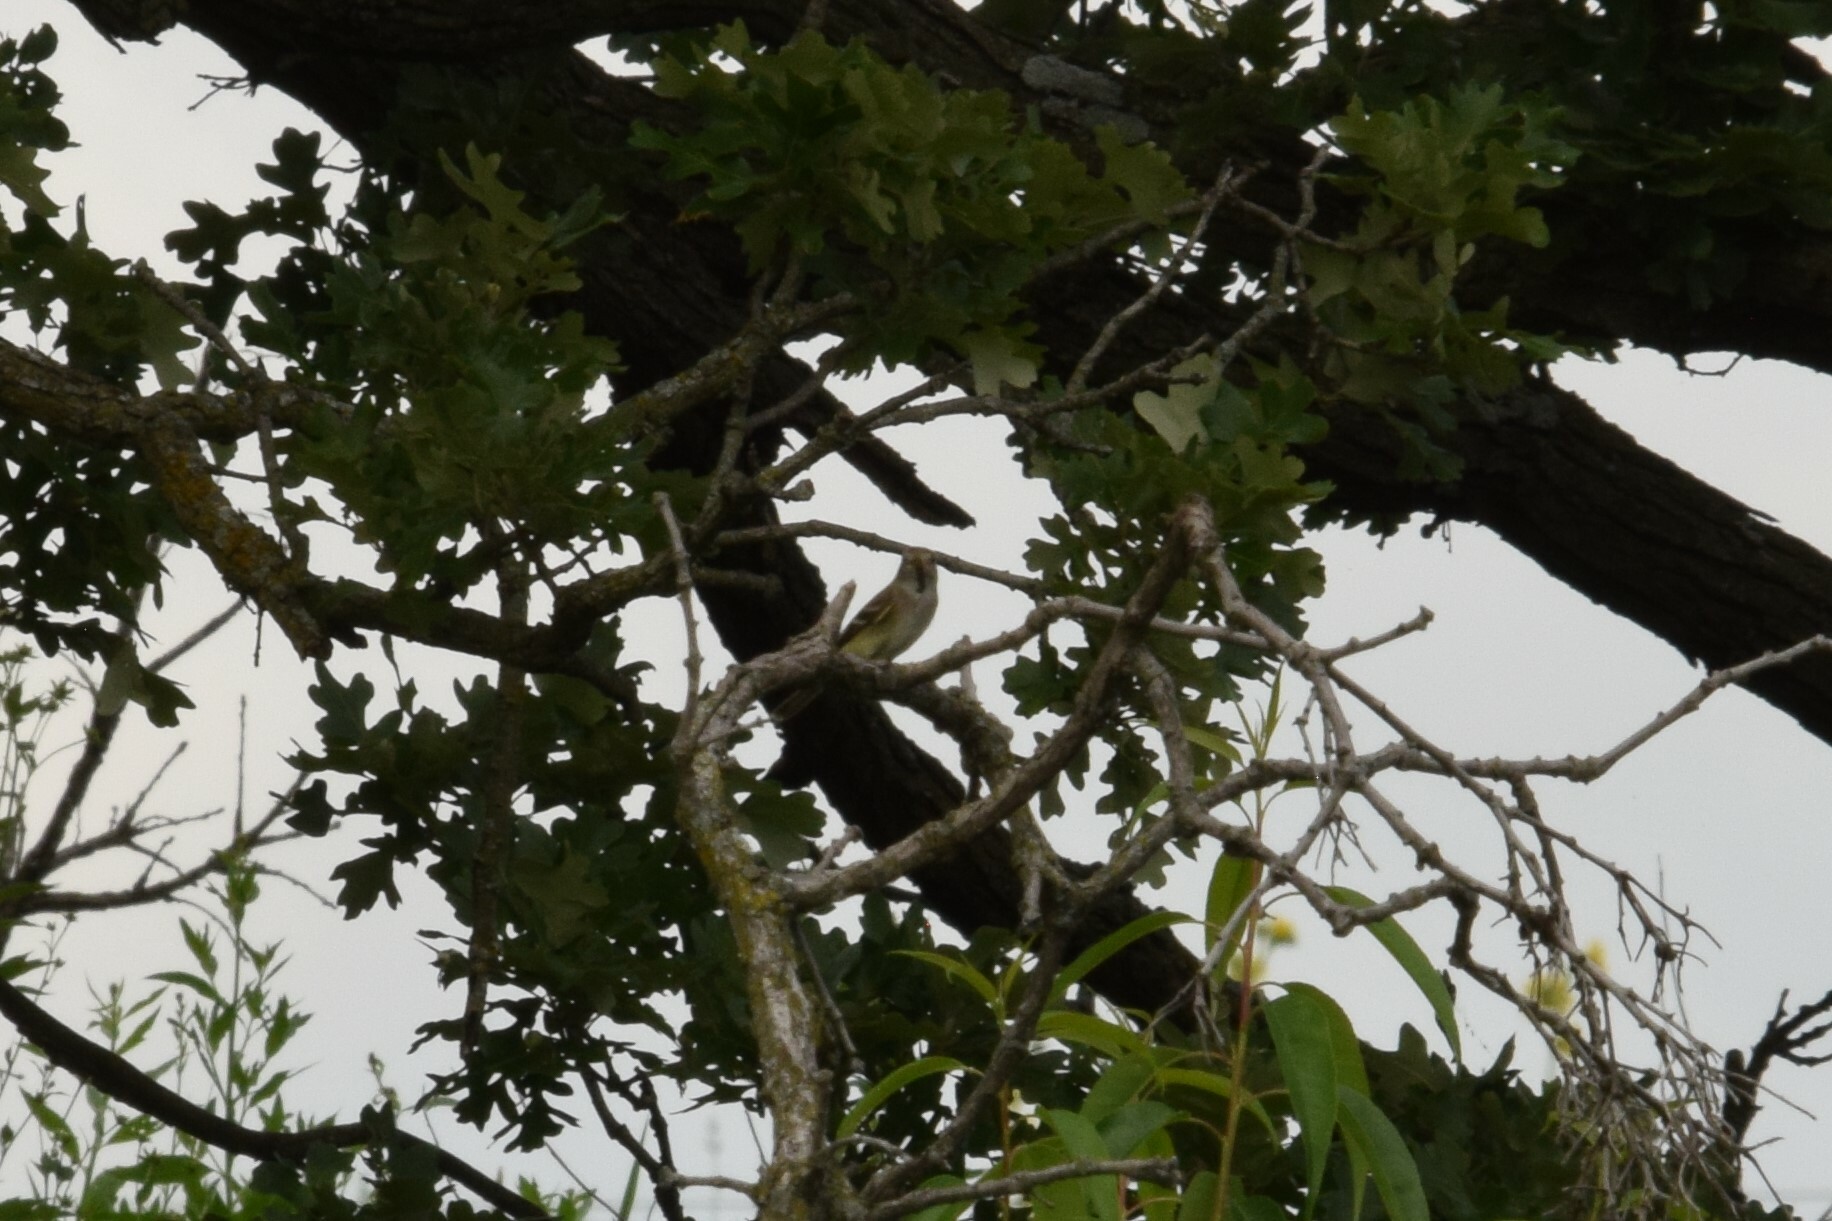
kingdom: Animalia
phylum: Chordata
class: Aves
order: Passeriformes
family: Fringillidae
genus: Spinus
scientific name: Spinus tristis
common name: American goldfinch
